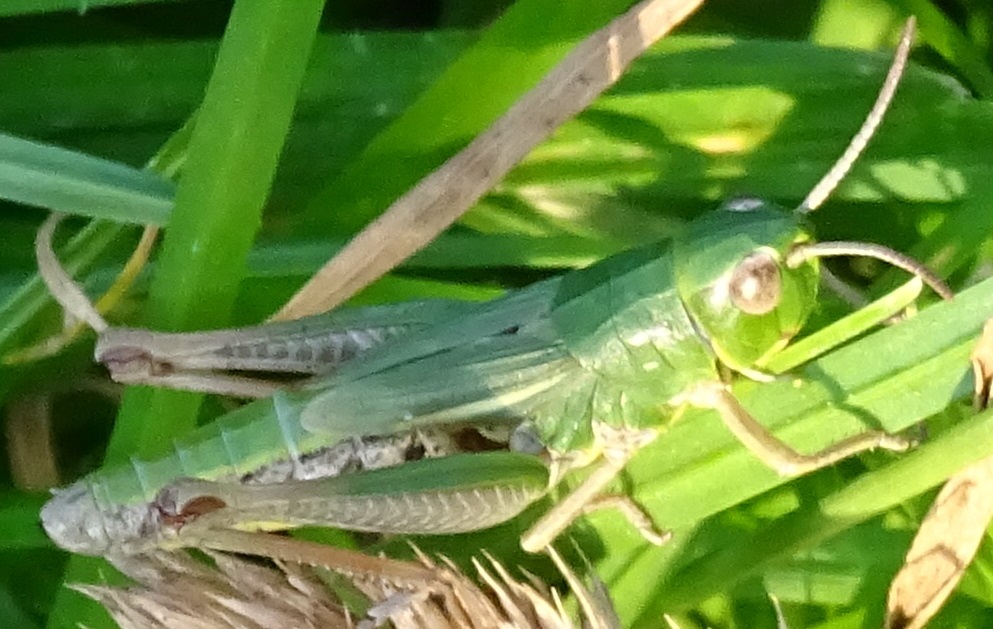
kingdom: Animalia
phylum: Arthropoda
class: Insecta
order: Orthoptera
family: Acrididae
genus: Pseudochorthippus
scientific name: Pseudochorthippus parallelus
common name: Meadow grasshopper
